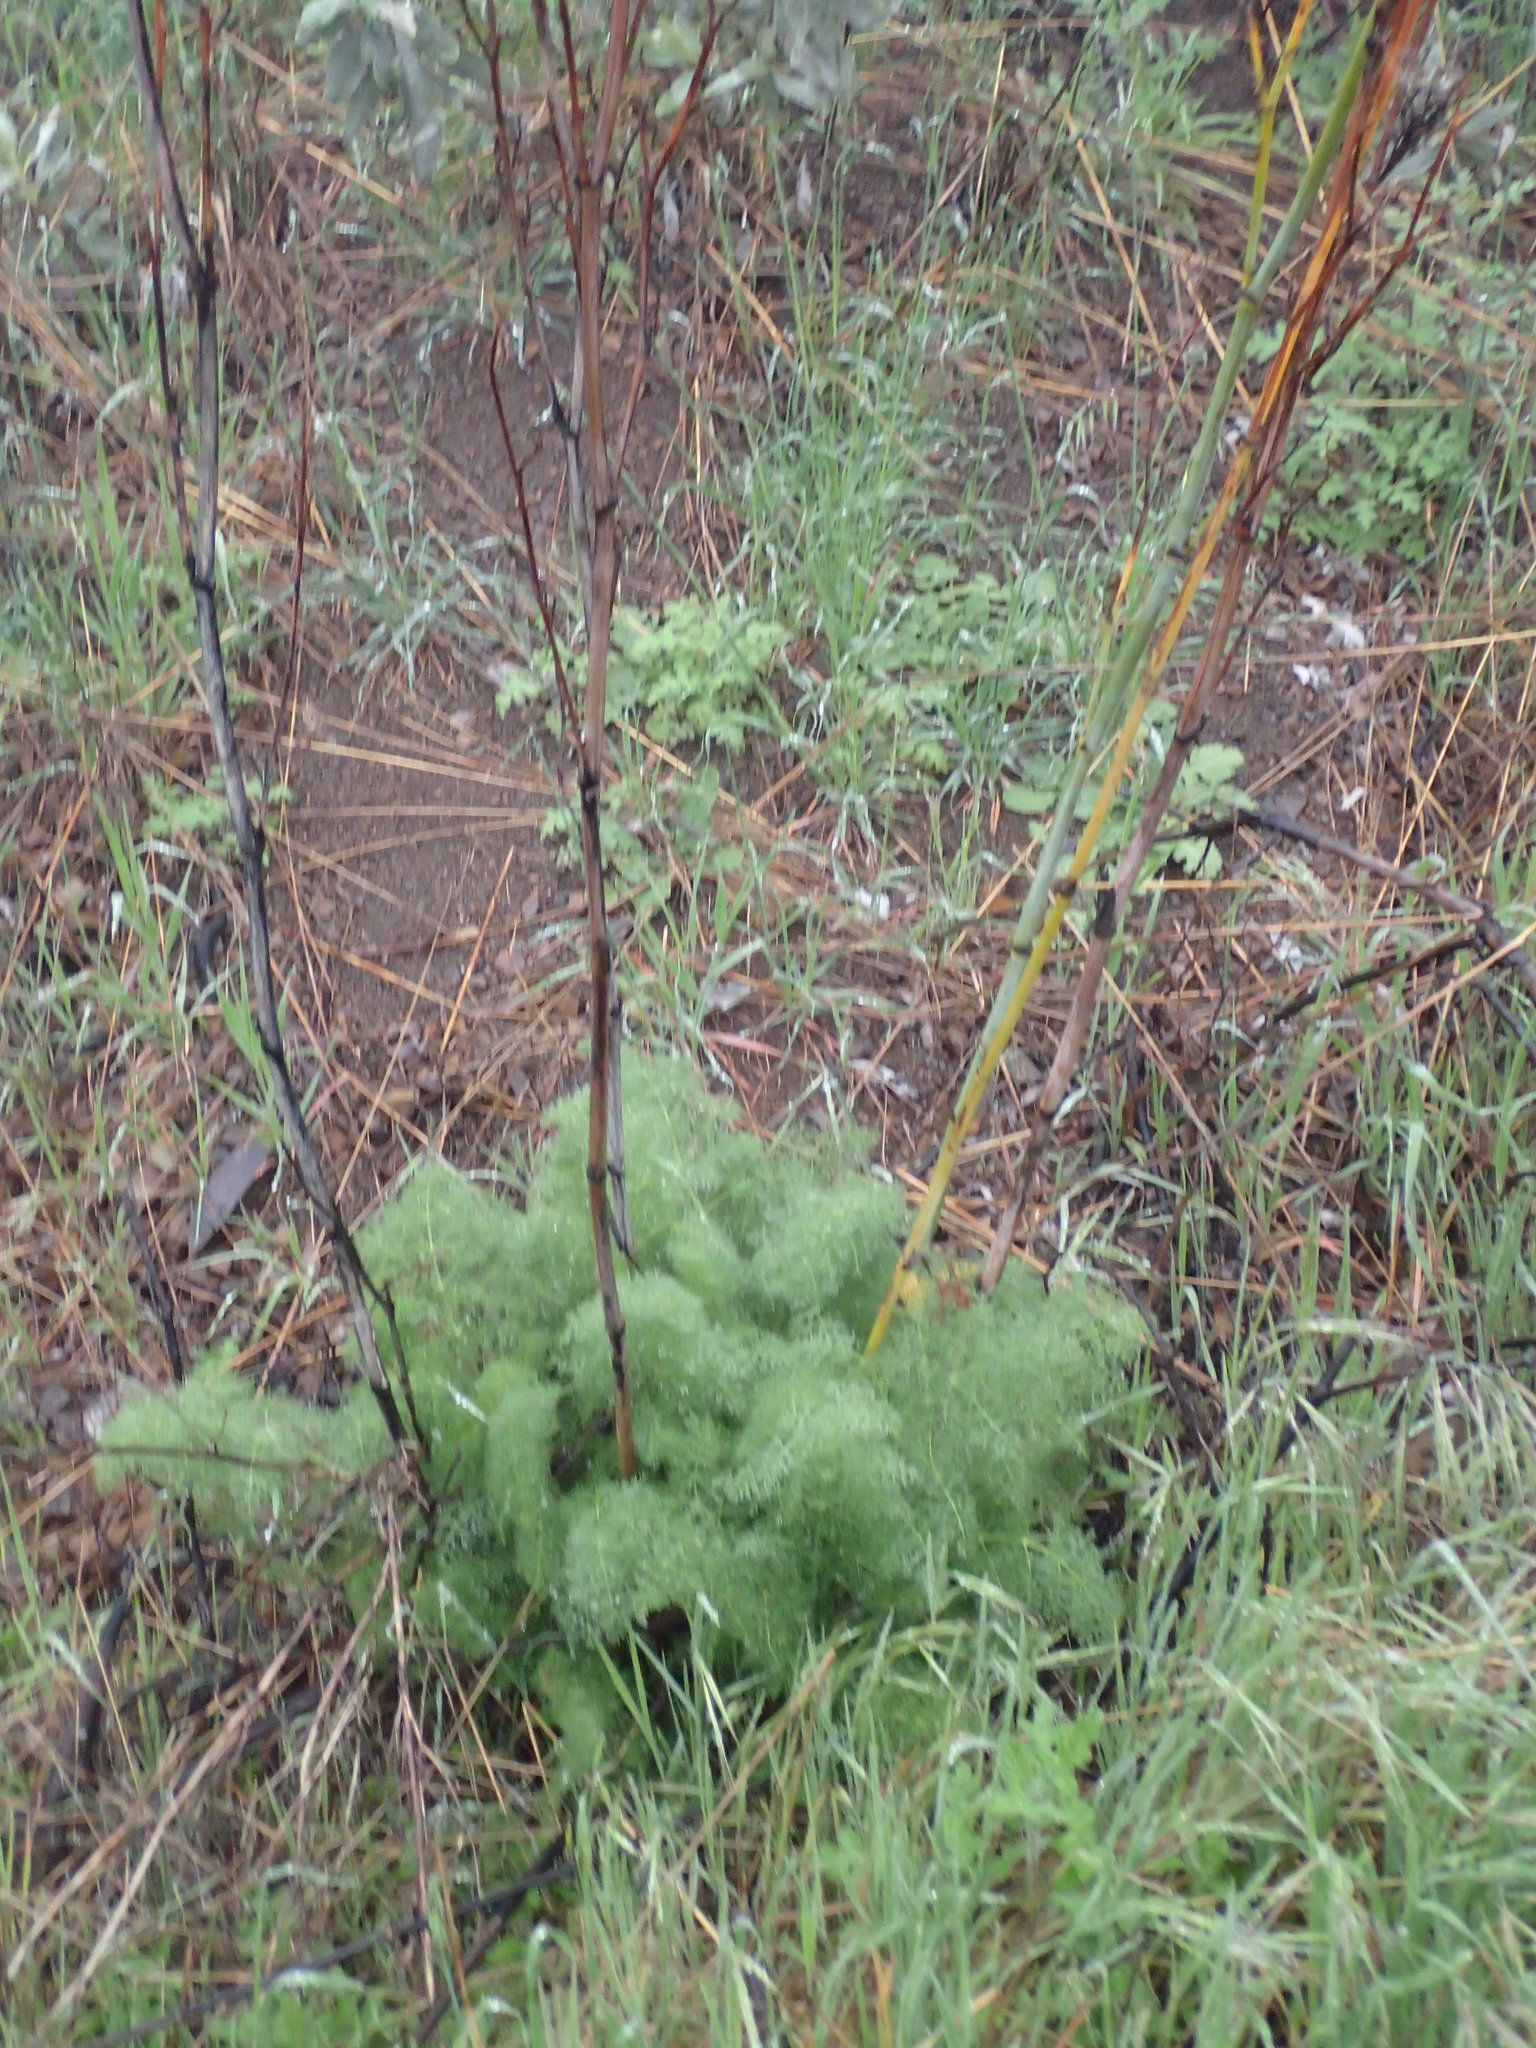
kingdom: Plantae
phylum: Tracheophyta
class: Magnoliopsida
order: Apiales
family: Apiaceae
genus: Foeniculum
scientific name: Foeniculum vulgare
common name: Fennel
